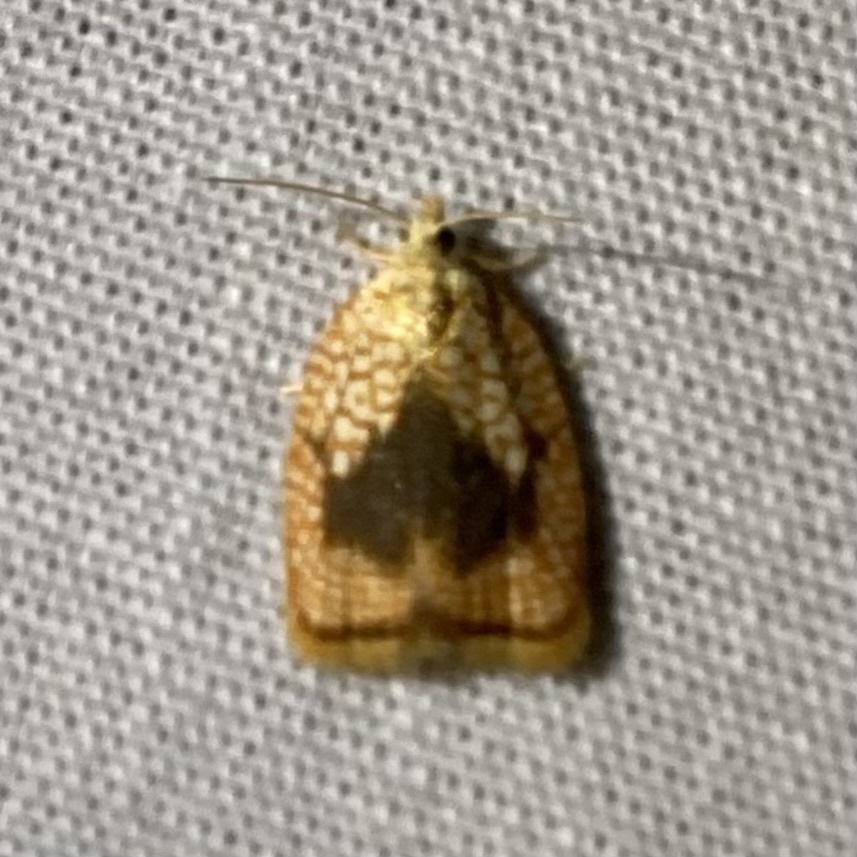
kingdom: Animalia
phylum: Arthropoda
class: Insecta
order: Lepidoptera
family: Tortricidae
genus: Acleris
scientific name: Acleris forsskaleana
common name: Maple button
